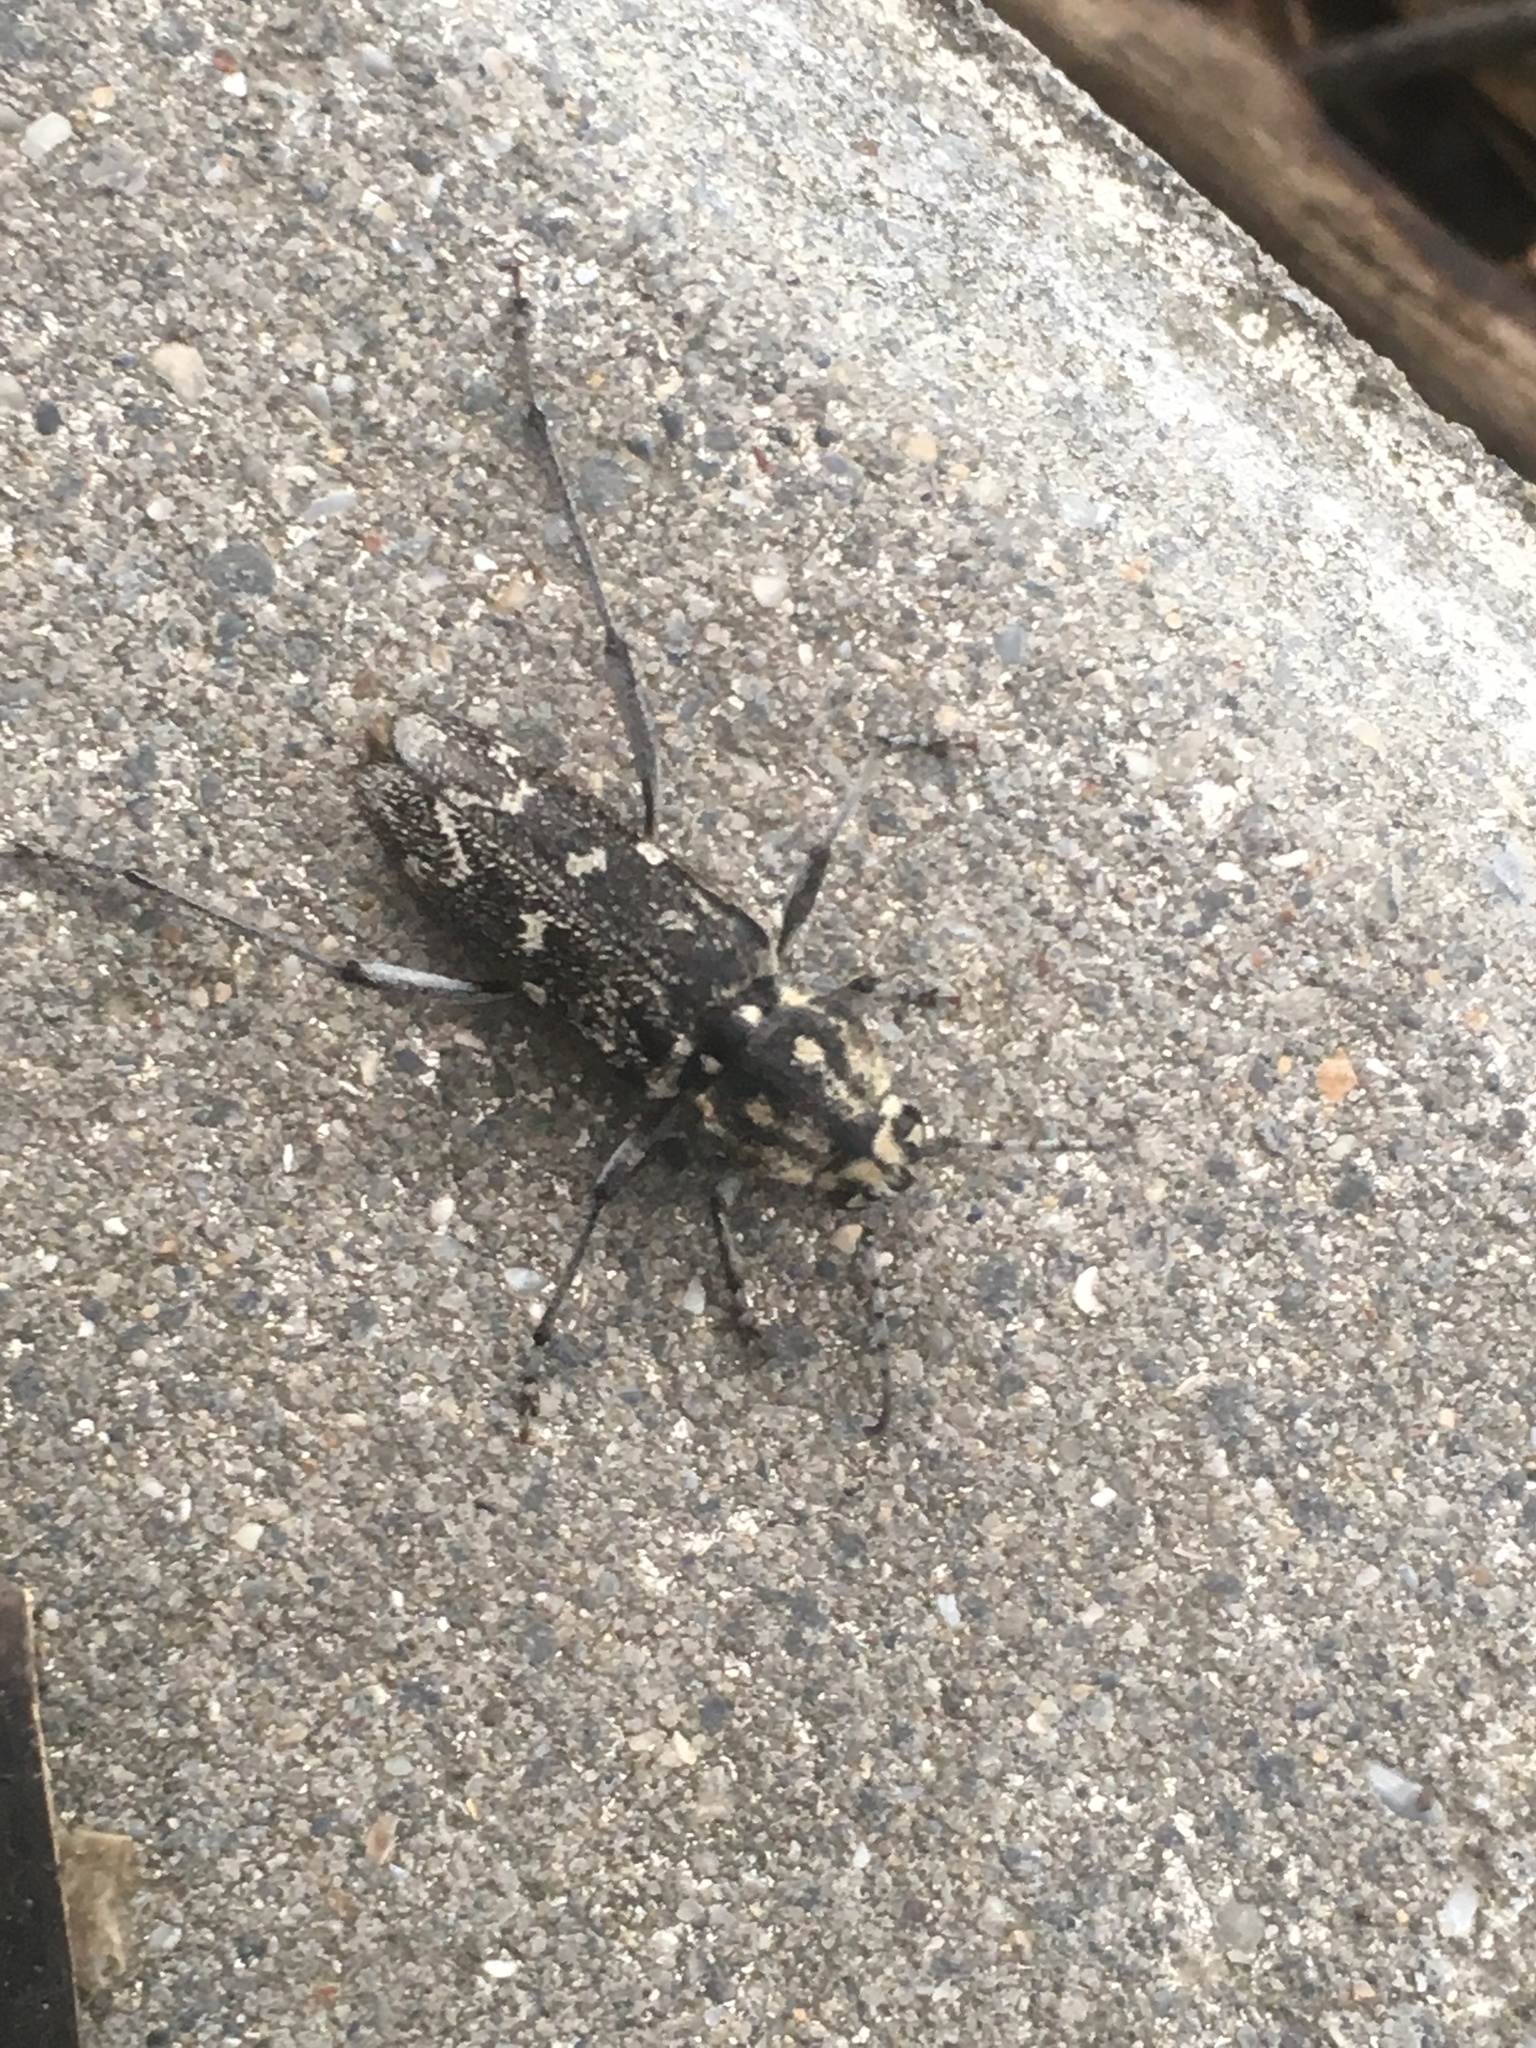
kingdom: Animalia
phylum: Arthropoda
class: Insecta
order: Coleoptera
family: Cerambycidae
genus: Xylotrechus
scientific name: Xylotrechus rusticus
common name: Grey tiger long-horned beetle
